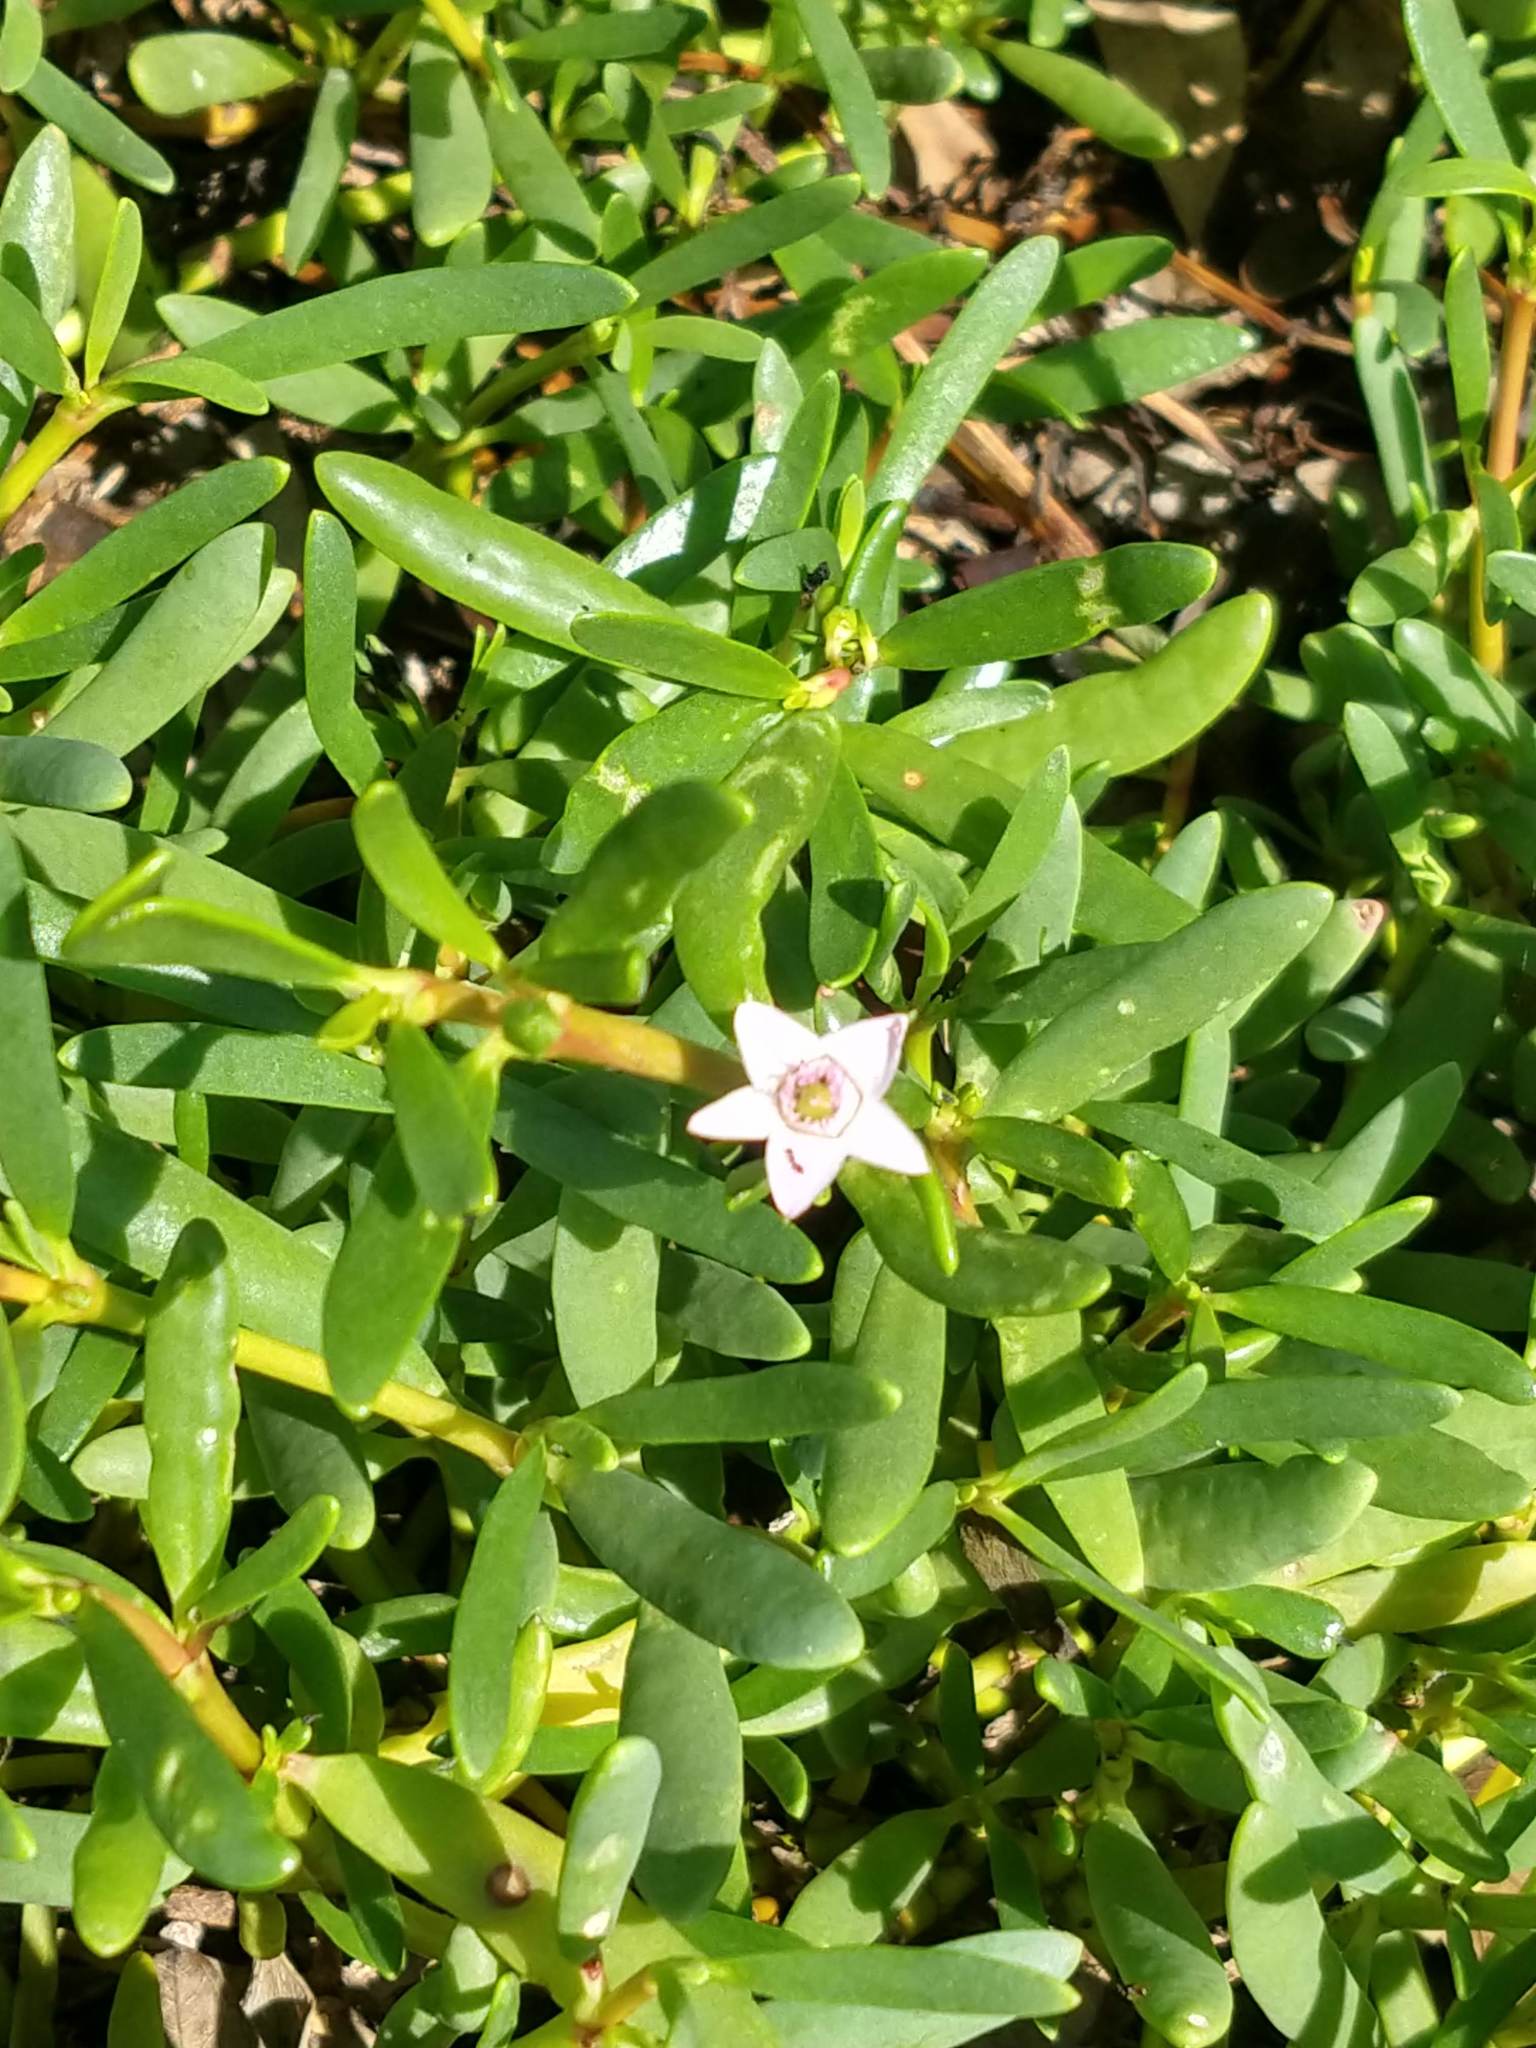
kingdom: Plantae
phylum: Tracheophyta
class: Magnoliopsida
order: Caryophyllales
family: Aizoaceae
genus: Sesuvium
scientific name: Sesuvium portulacastrum
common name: Sea-purslane
